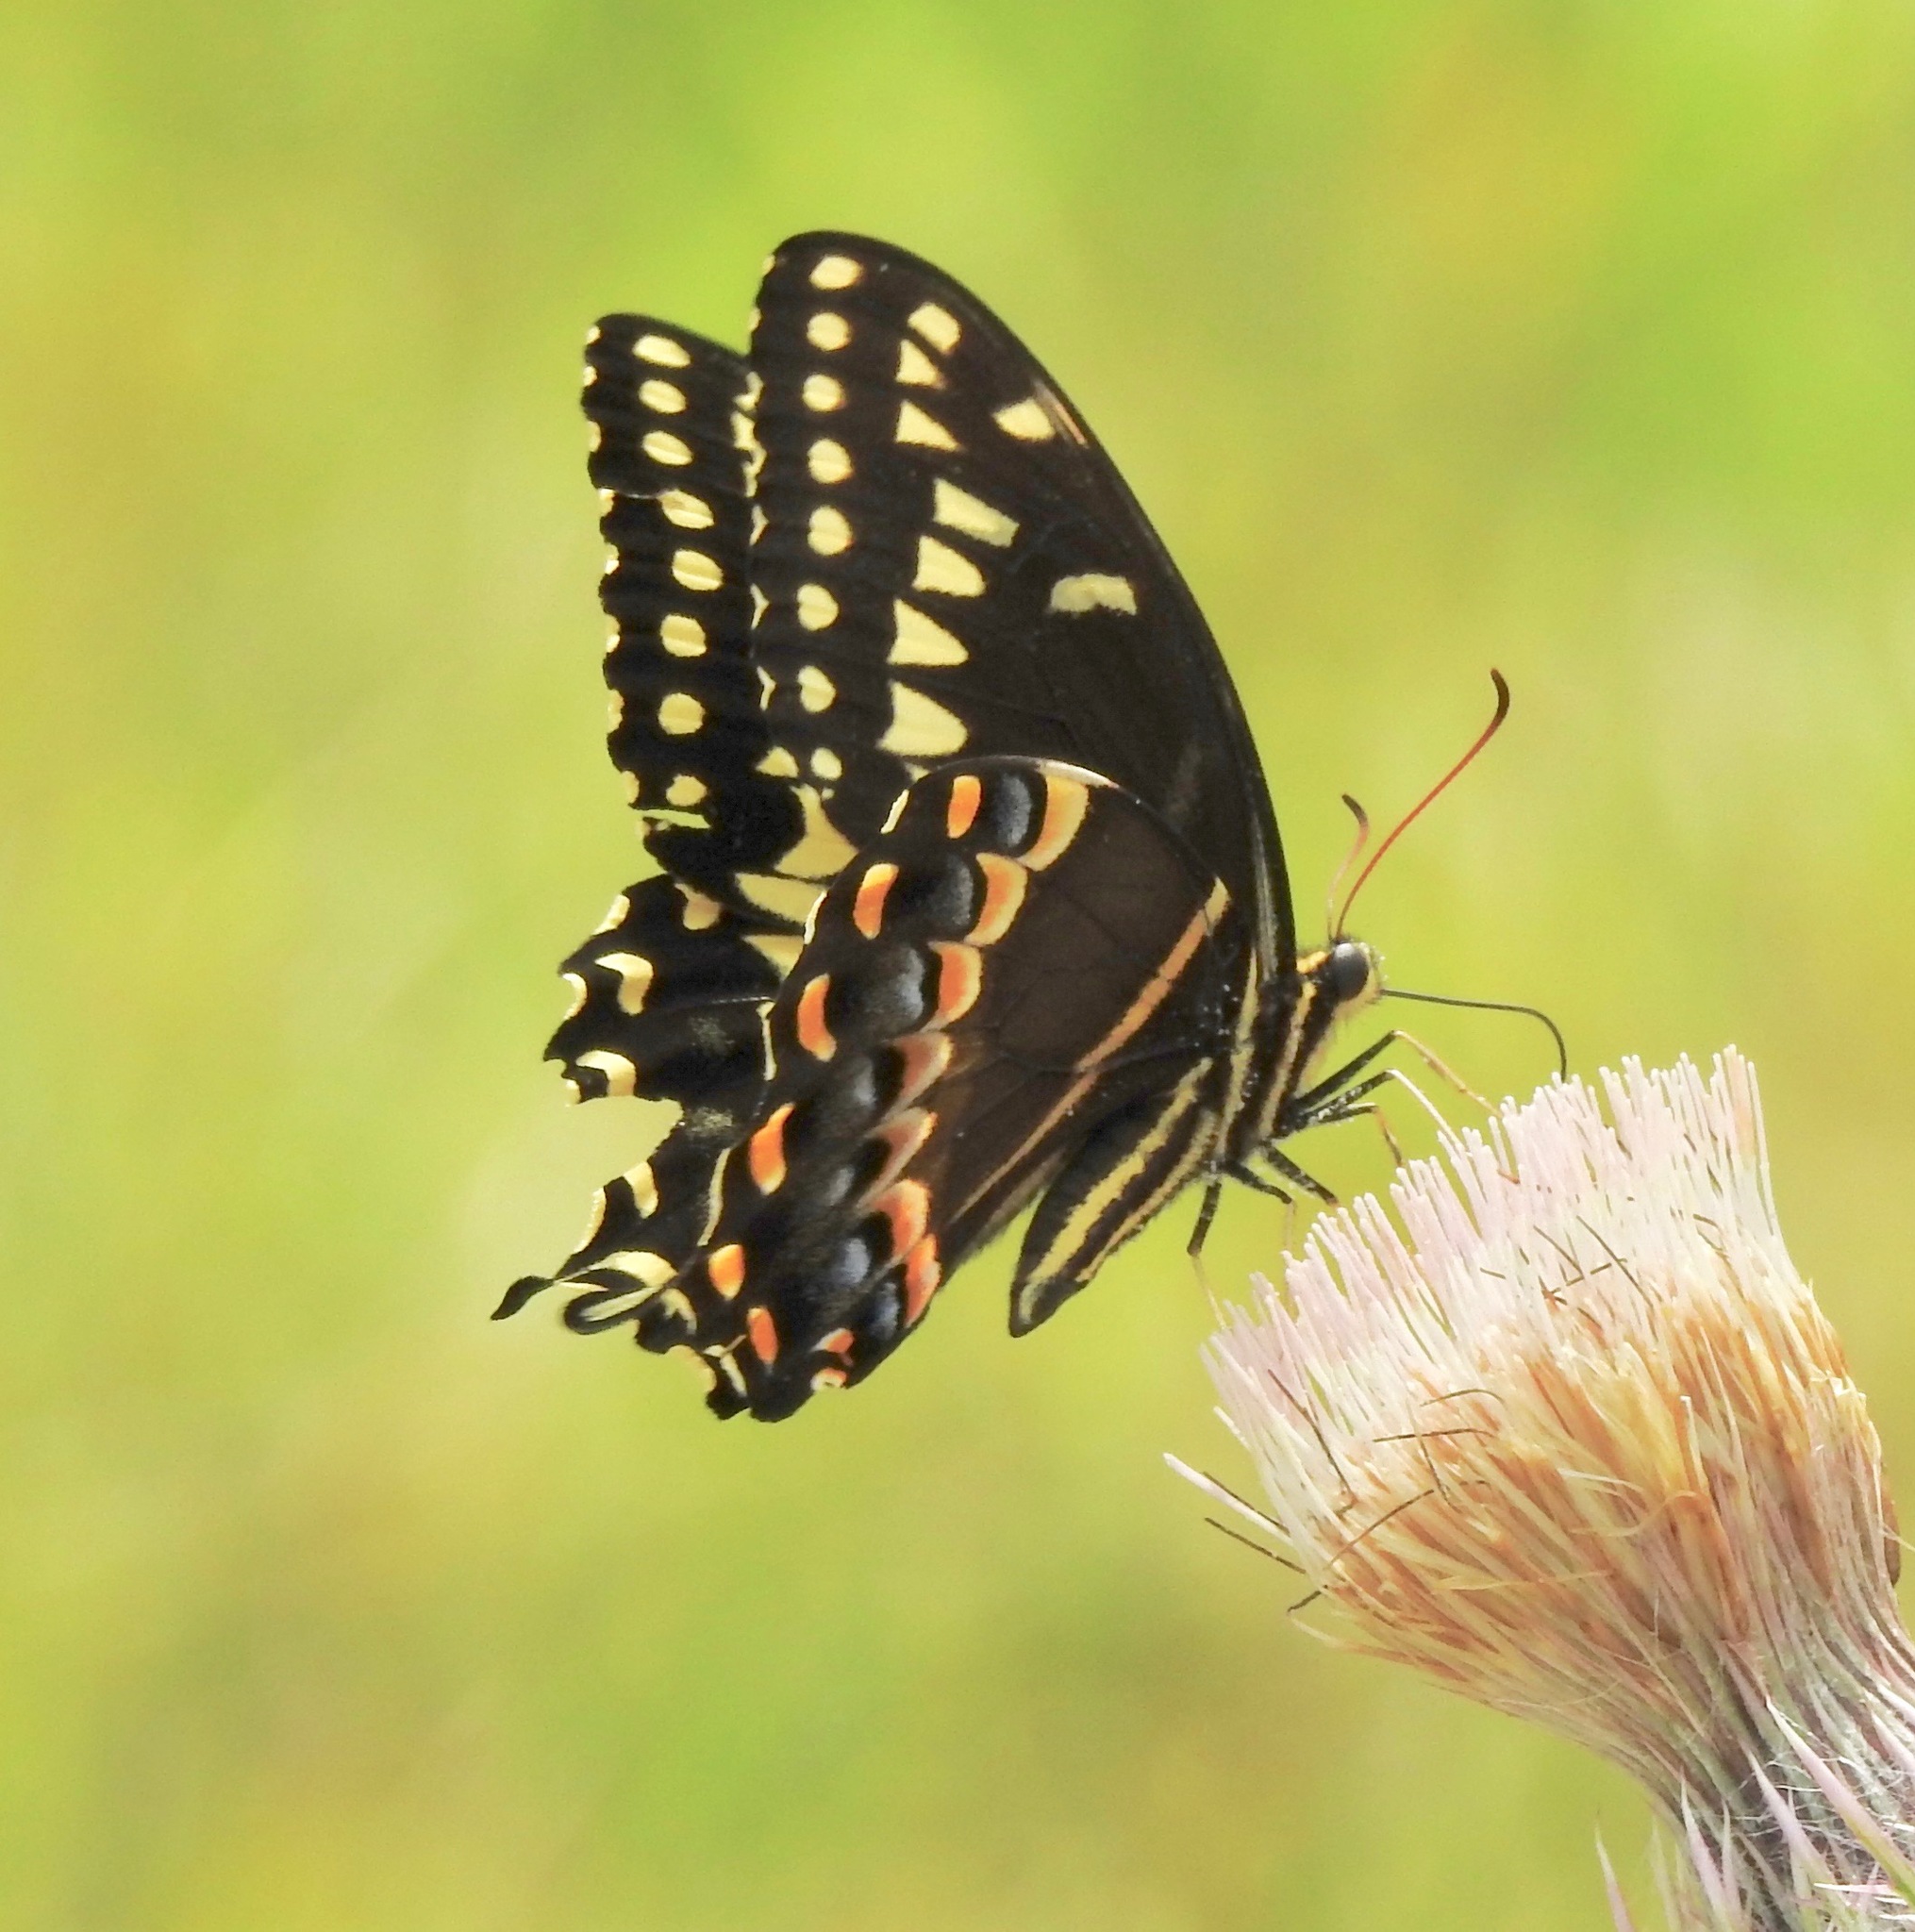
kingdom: Animalia
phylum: Arthropoda
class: Insecta
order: Lepidoptera
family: Papilionidae
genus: Papilio
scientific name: Papilio palamedes
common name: Palamedes swallowtail
